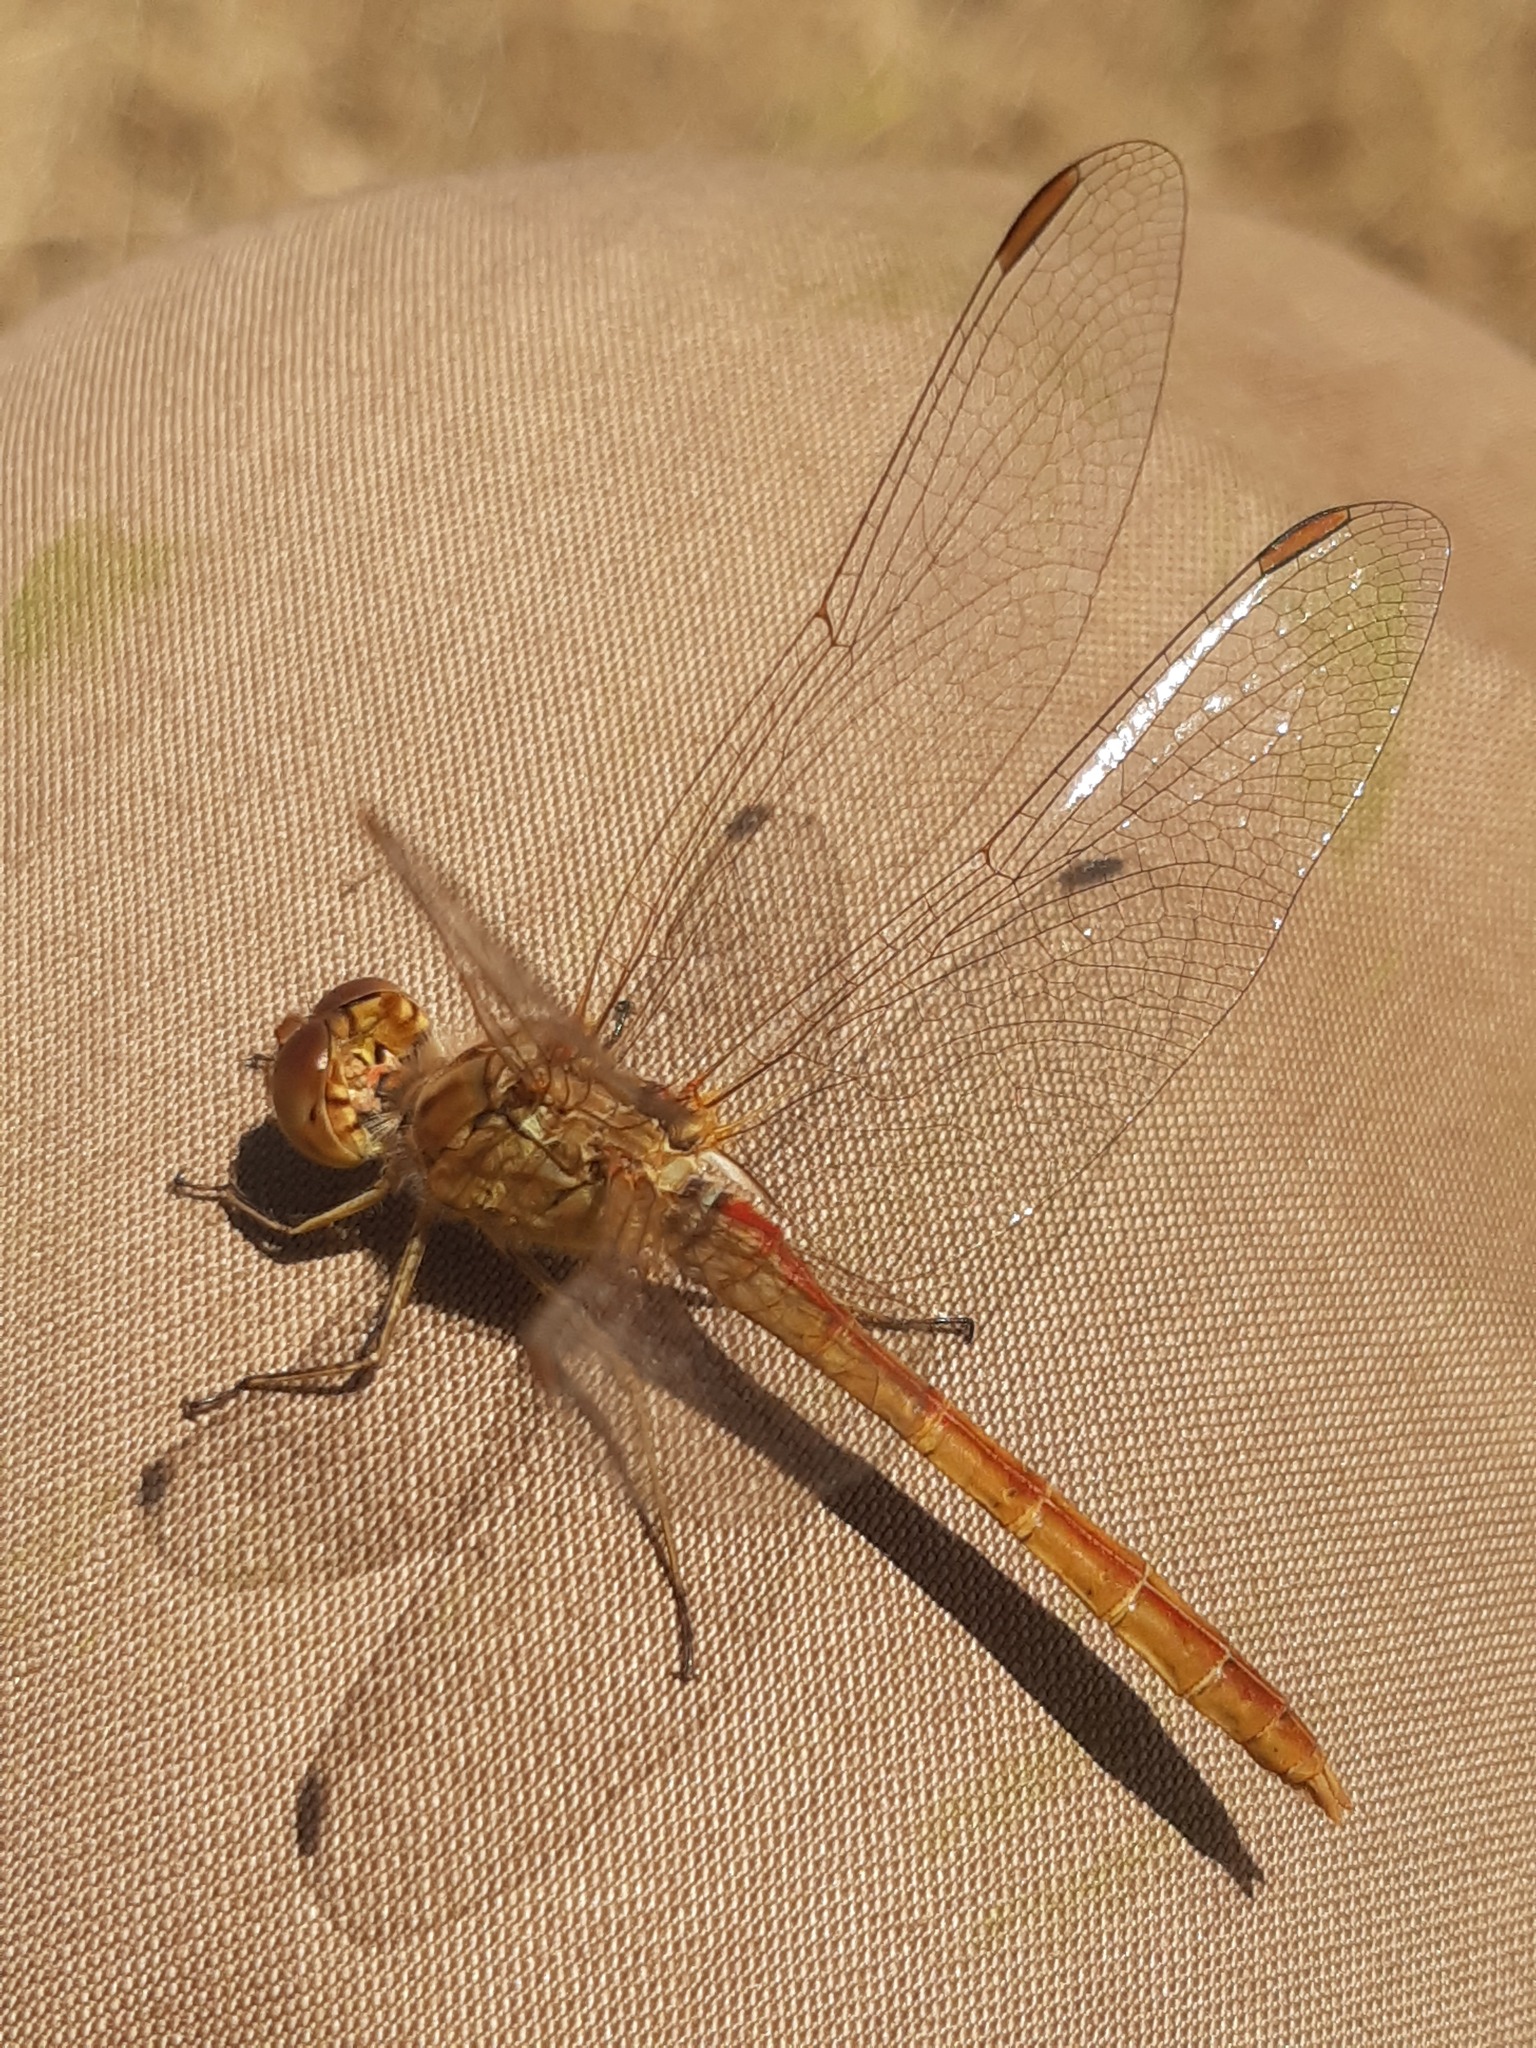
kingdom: Animalia
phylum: Arthropoda
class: Insecta
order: Odonata
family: Libellulidae
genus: Sympetrum
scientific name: Sympetrum meridionale
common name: Southern darter
